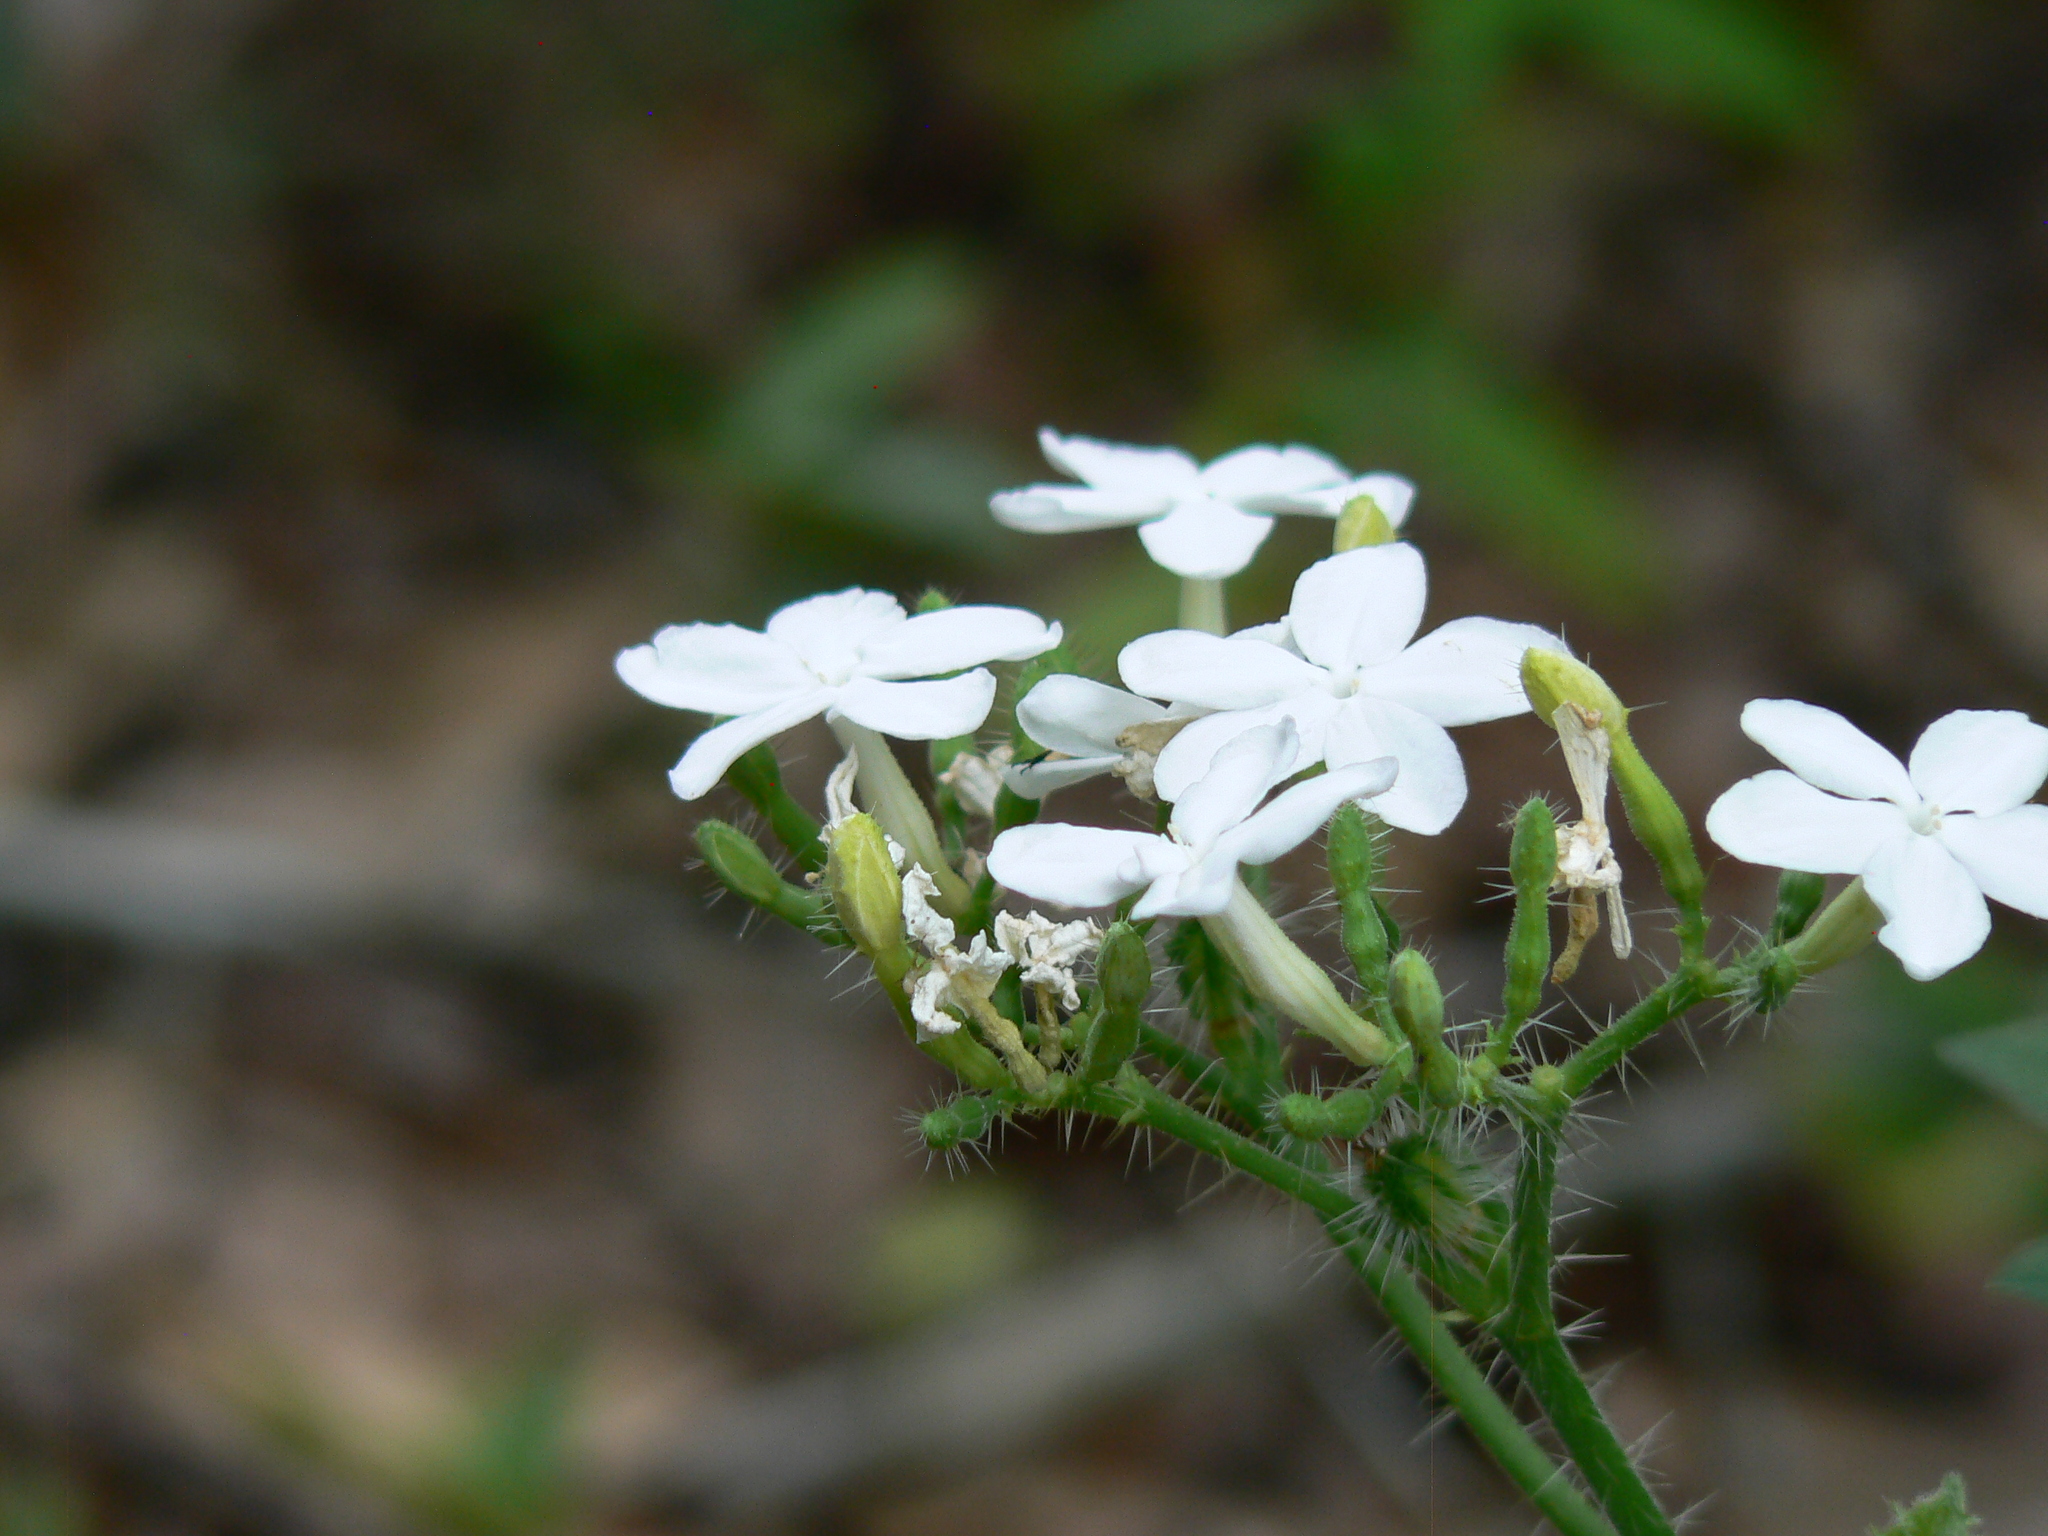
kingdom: Plantae
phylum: Tracheophyta
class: Magnoliopsida
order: Malpighiales
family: Euphorbiaceae
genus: Cnidoscolus
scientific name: Cnidoscolus stimulosus
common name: Bull-nettle
